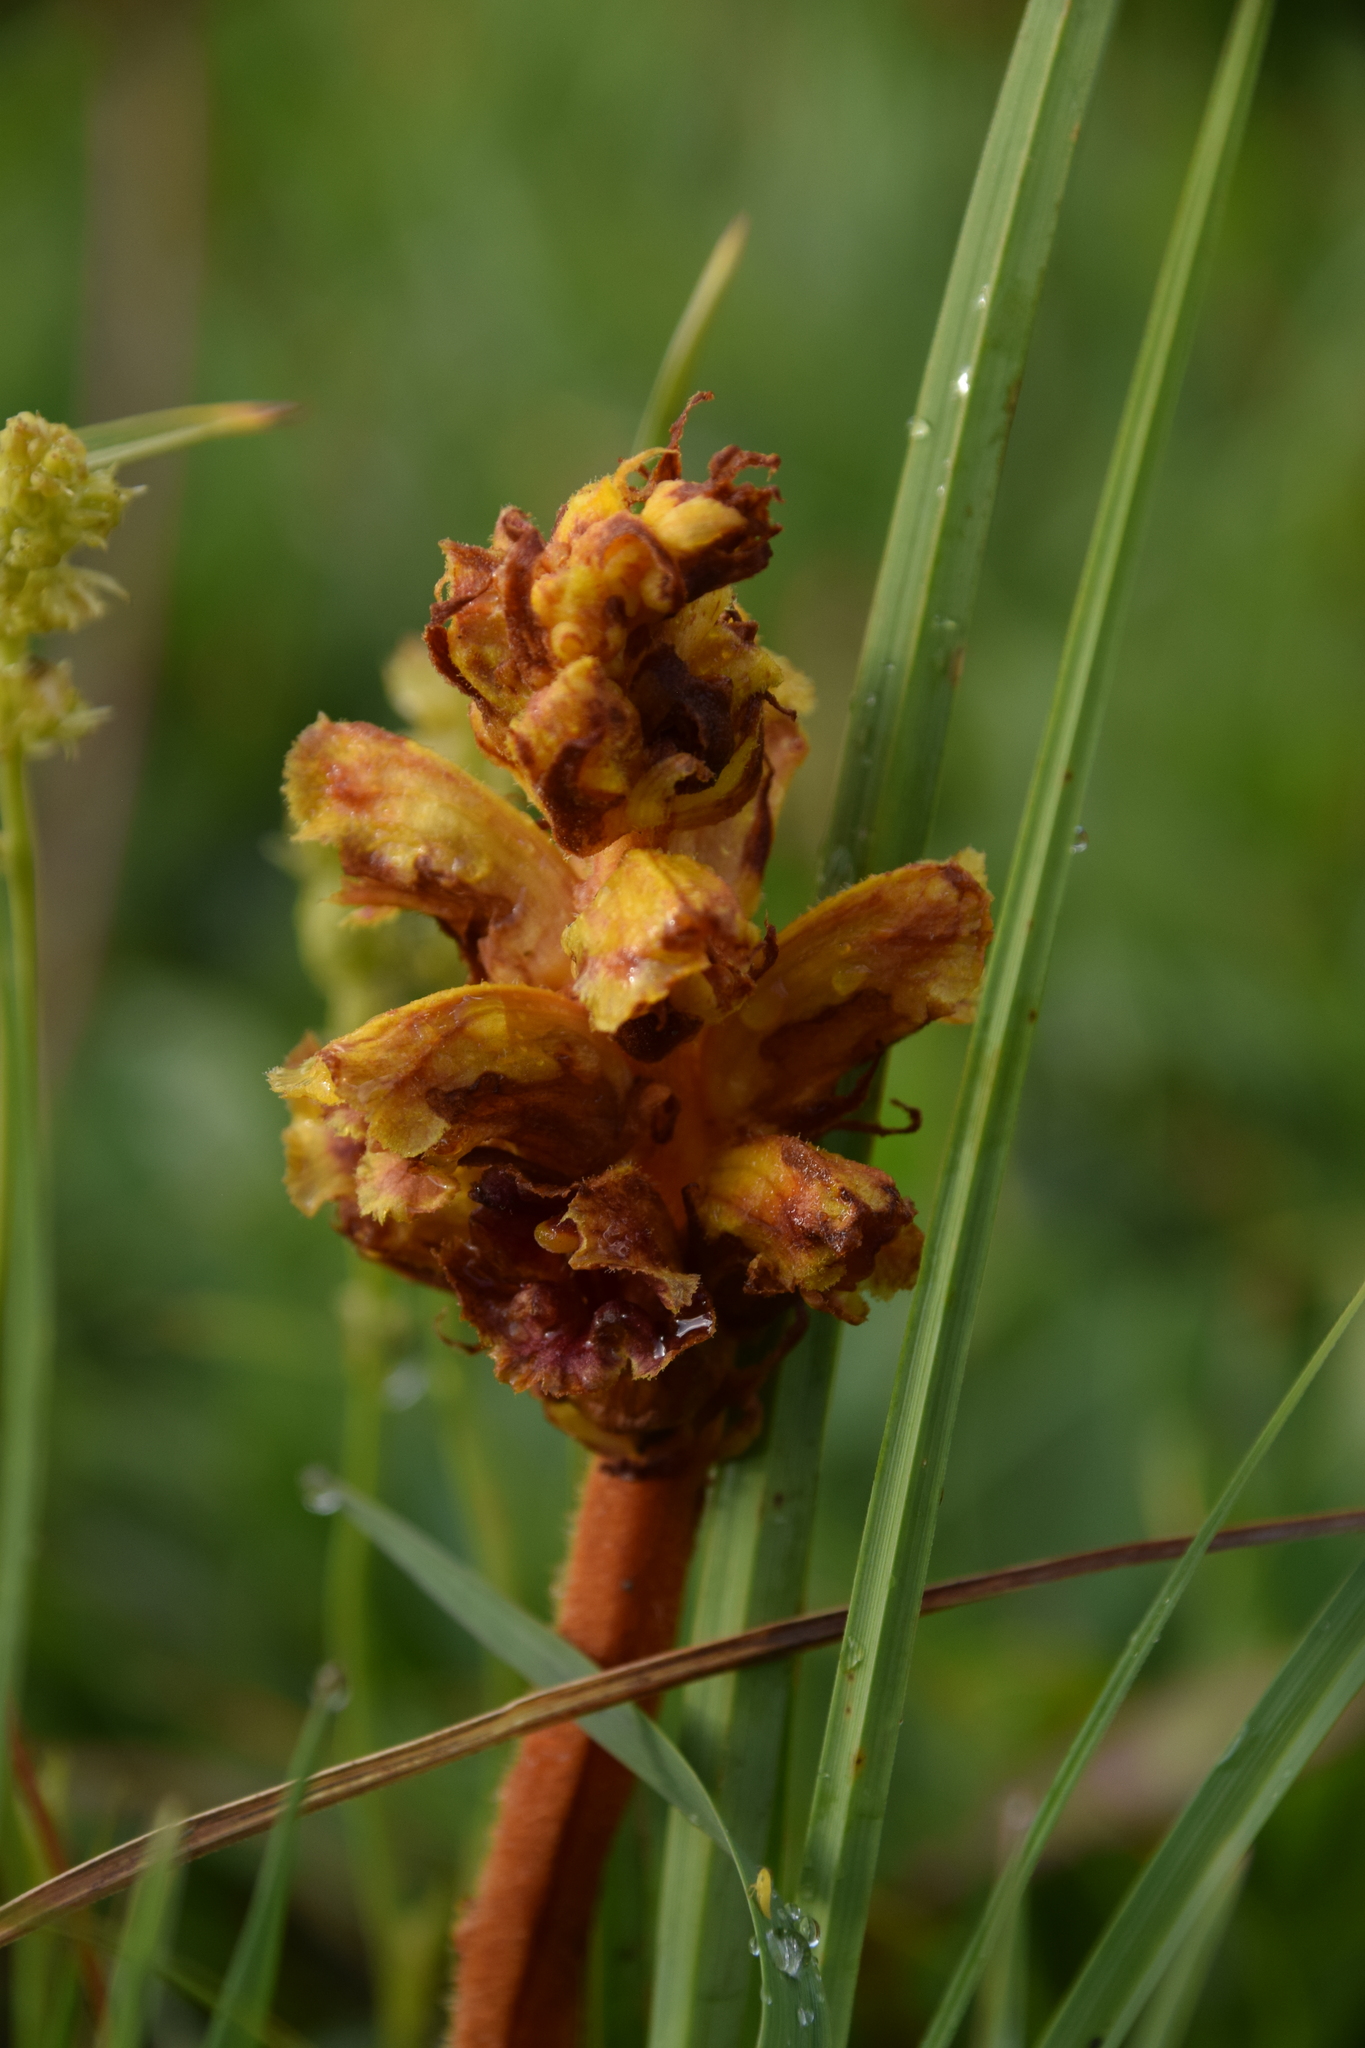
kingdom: Plantae
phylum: Tracheophyta
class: Magnoliopsida
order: Lamiales
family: Orobanchaceae
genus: Orobanche
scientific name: Orobanche gracilis
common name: Slender broomrape
